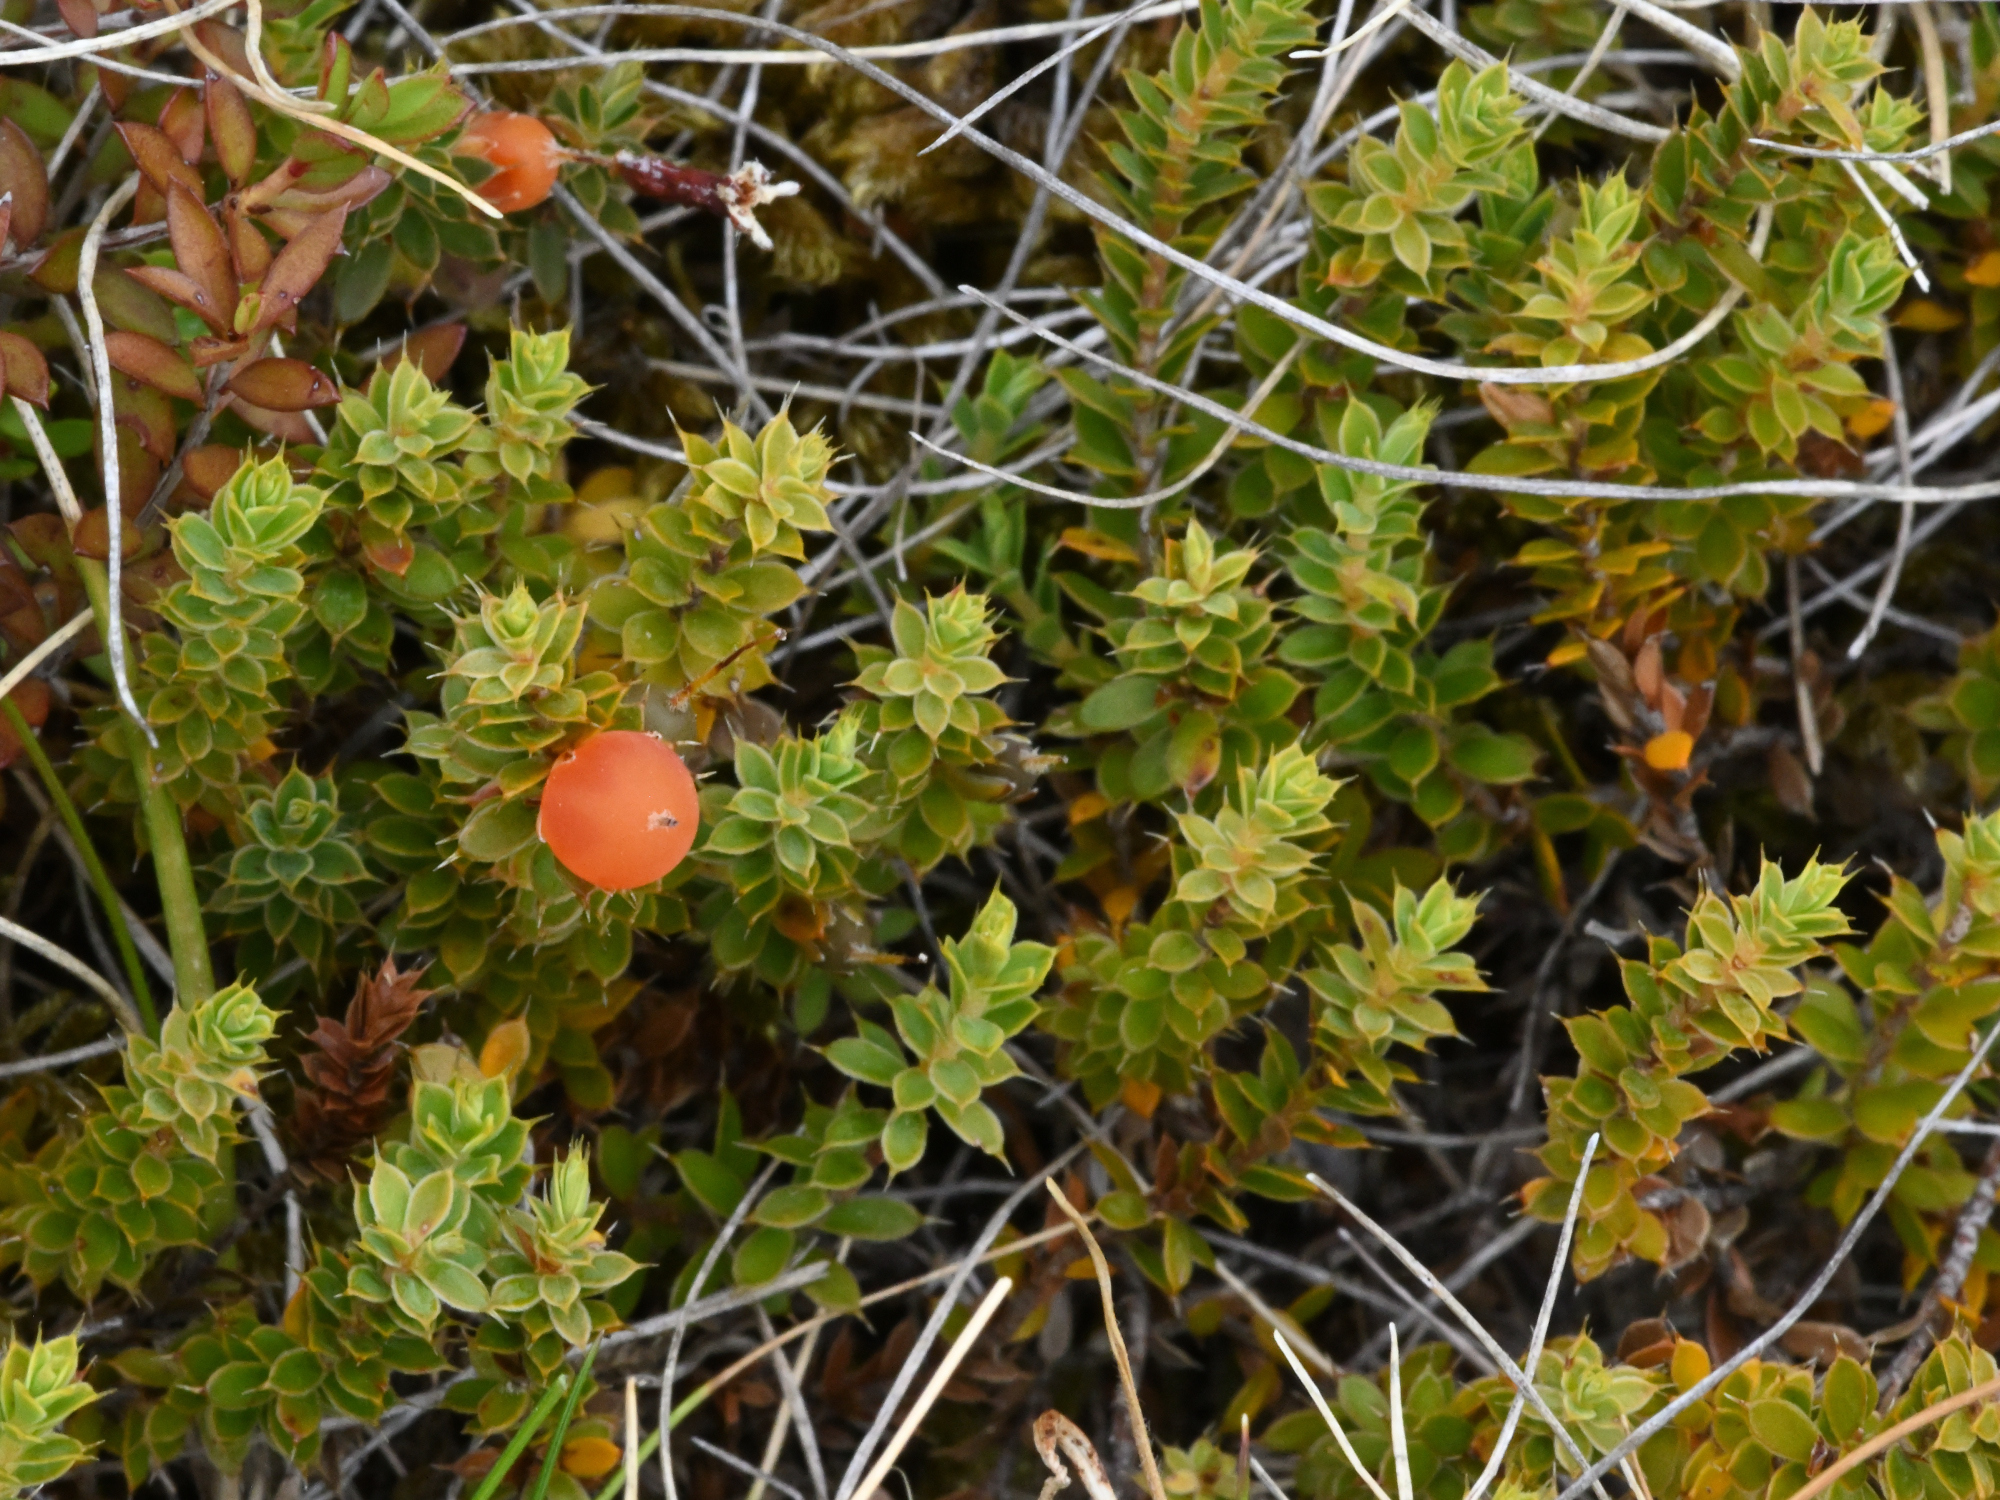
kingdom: Plantae
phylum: Tracheophyta
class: Magnoliopsida
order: Ericales
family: Ericaceae
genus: Styphelia
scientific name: Styphelia nesophila
